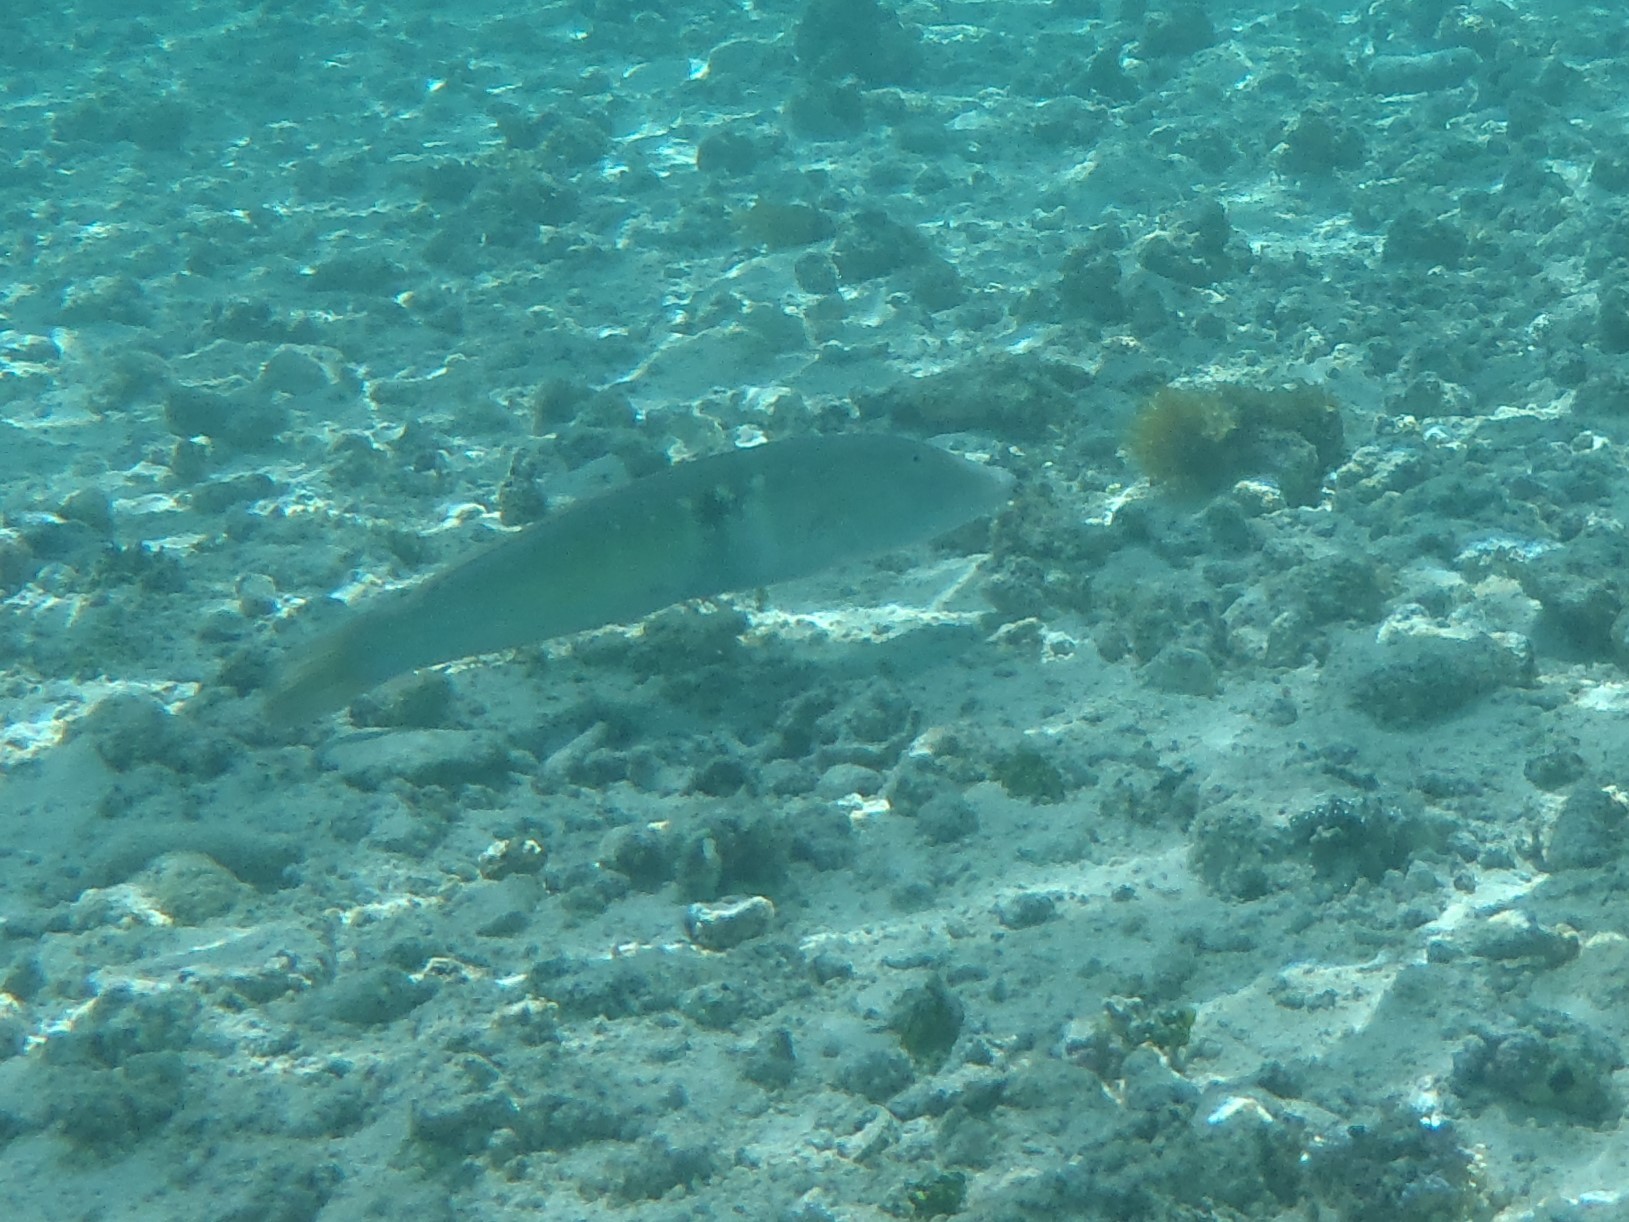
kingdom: Animalia
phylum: Chordata
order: Perciformes
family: Labridae
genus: Cheilio
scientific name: Cheilio inermis
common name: Cigar wrasse
